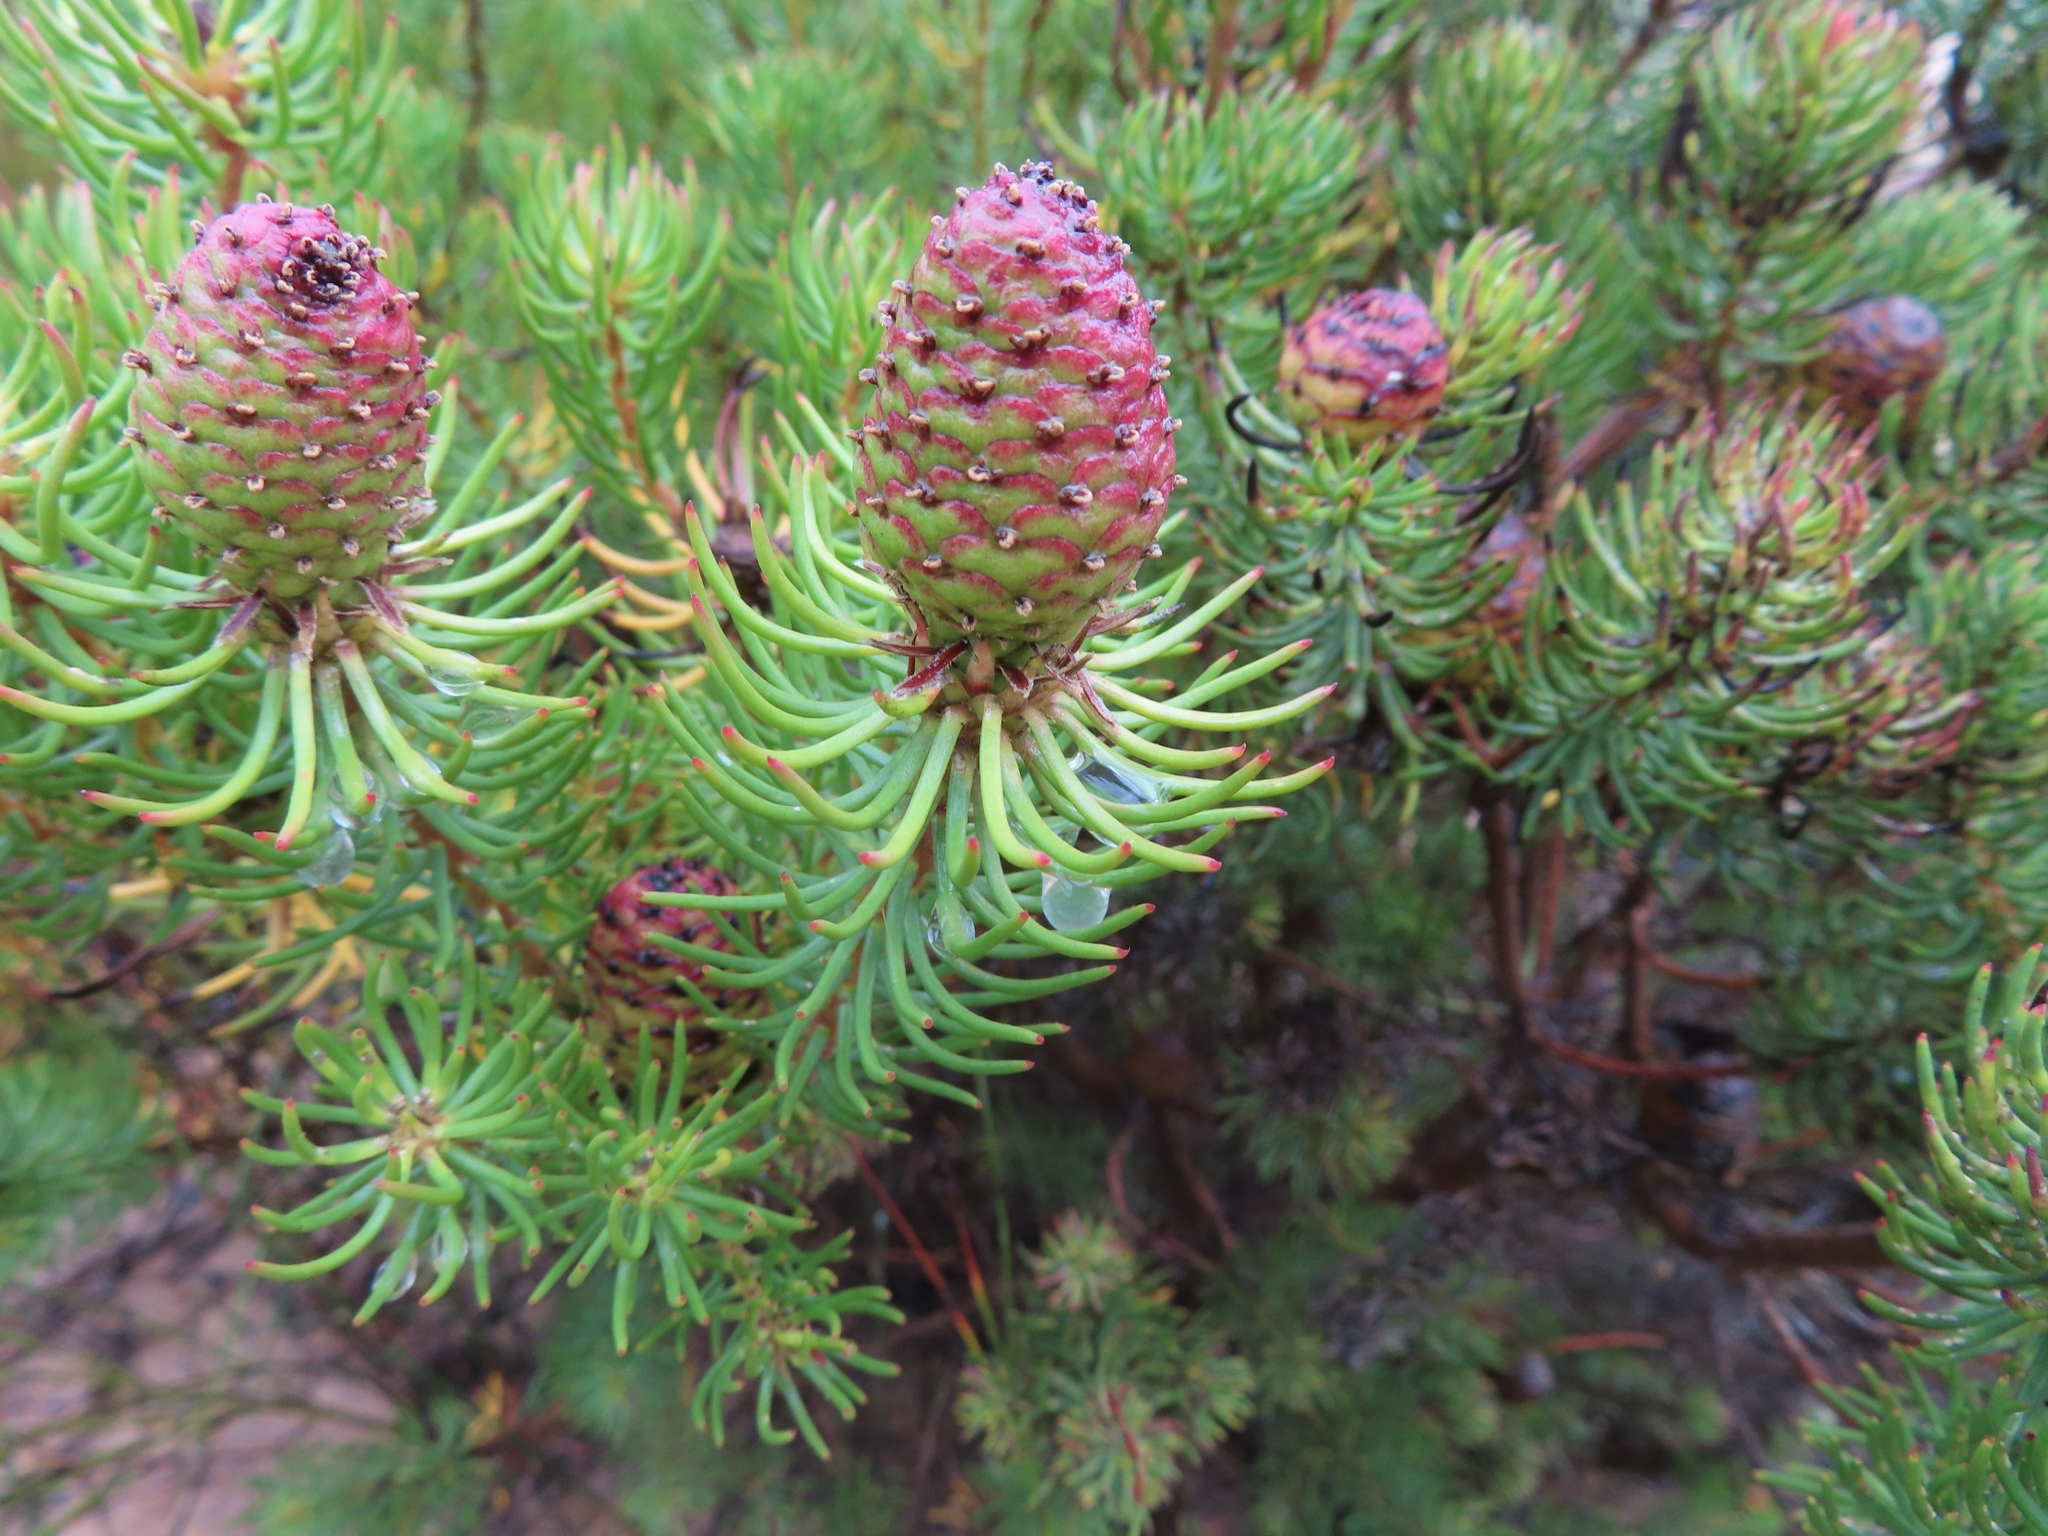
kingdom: Plantae
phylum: Tracheophyta
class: Magnoliopsida
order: Proteales
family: Proteaceae
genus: Leucadendron
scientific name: Leucadendron teretifolium
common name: Needle-leaf conebush
